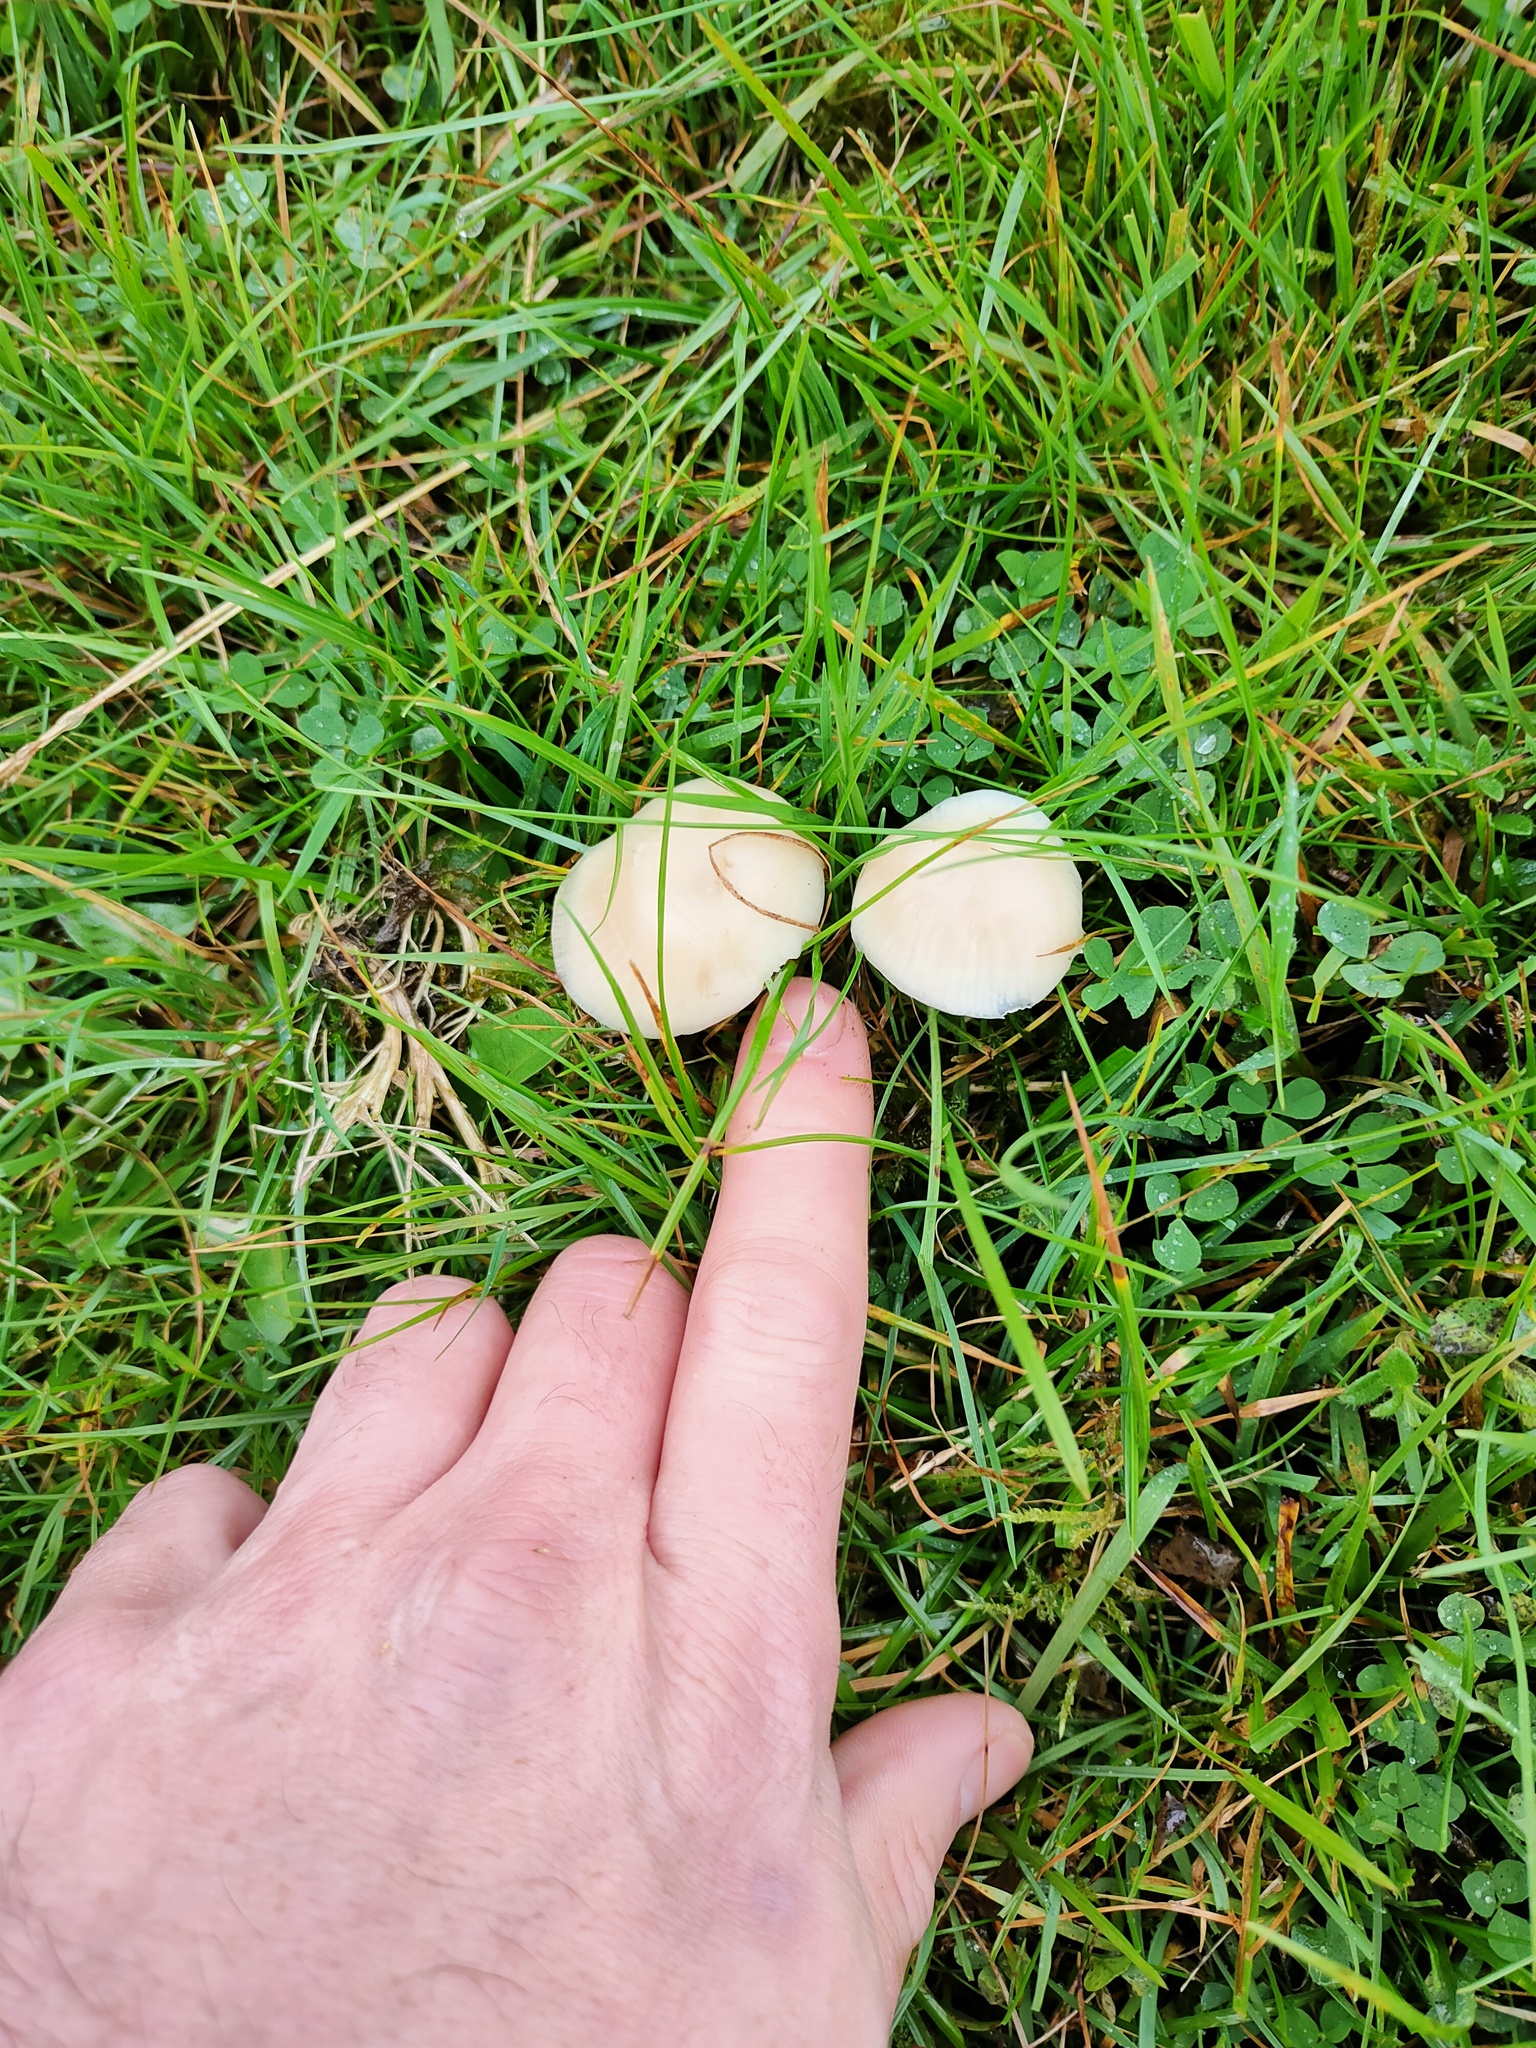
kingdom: Fungi
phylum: Basidiomycota
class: Agaricomycetes
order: Agaricales
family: Hygrophoraceae
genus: Cuphophyllus
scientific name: Cuphophyllus virgineus
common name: Snowy waxcap
